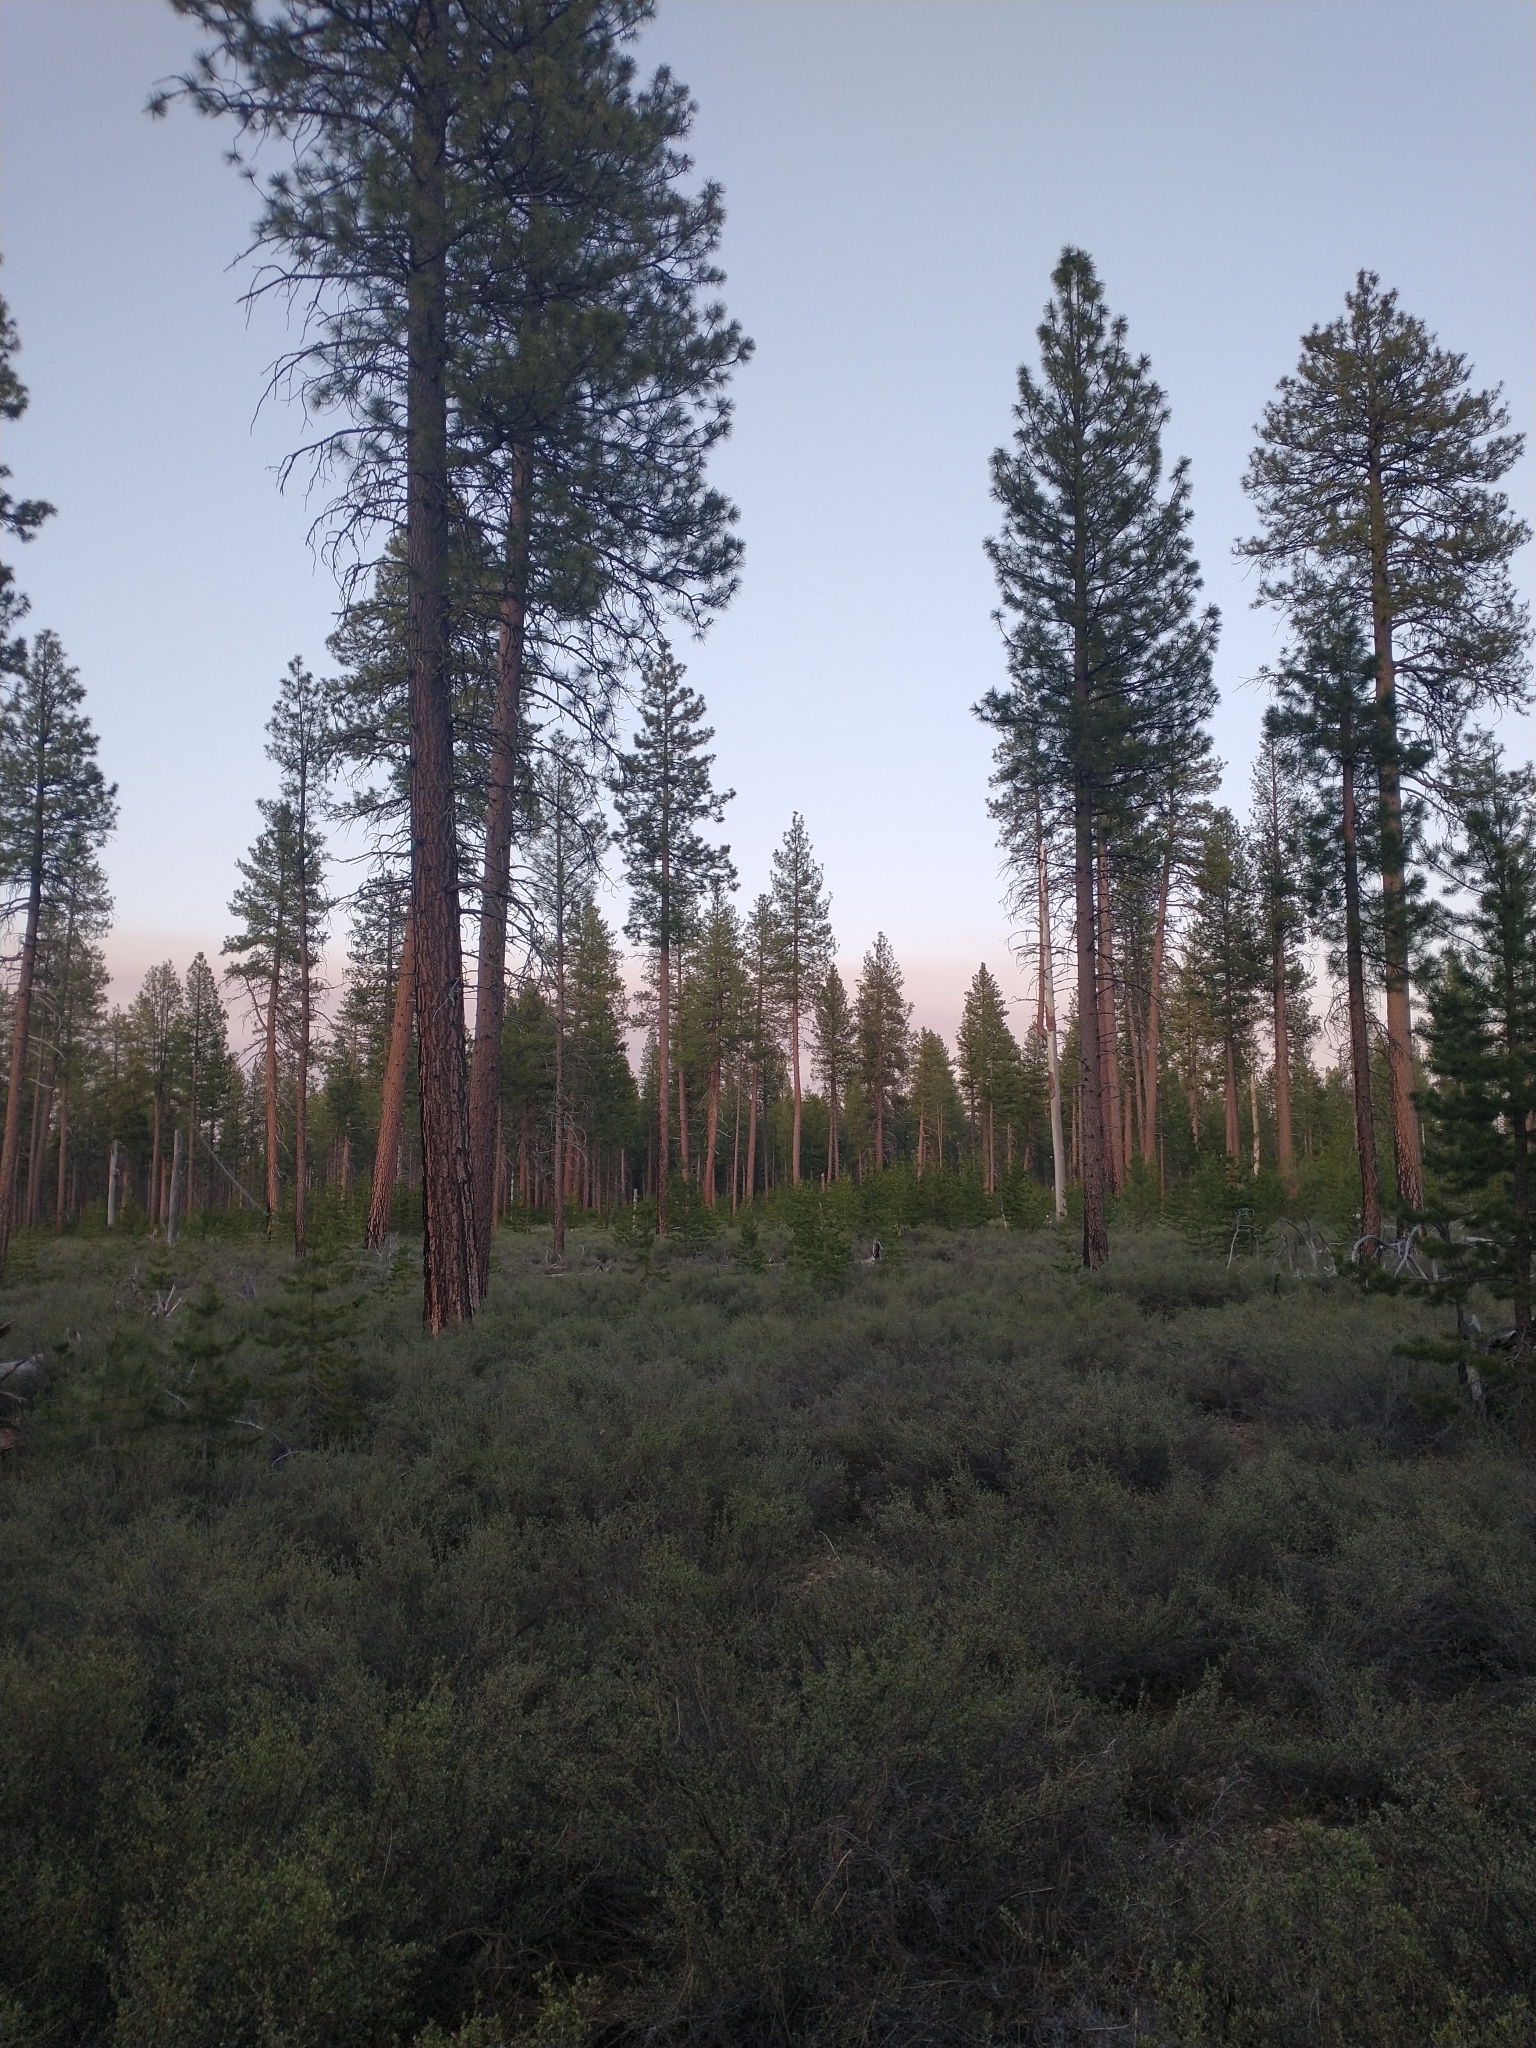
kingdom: Plantae
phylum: Tracheophyta
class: Magnoliopsida
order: Rosales
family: Rosaceae
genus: Purshia
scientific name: Purshia tridentata
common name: Antelope bitterbrush
